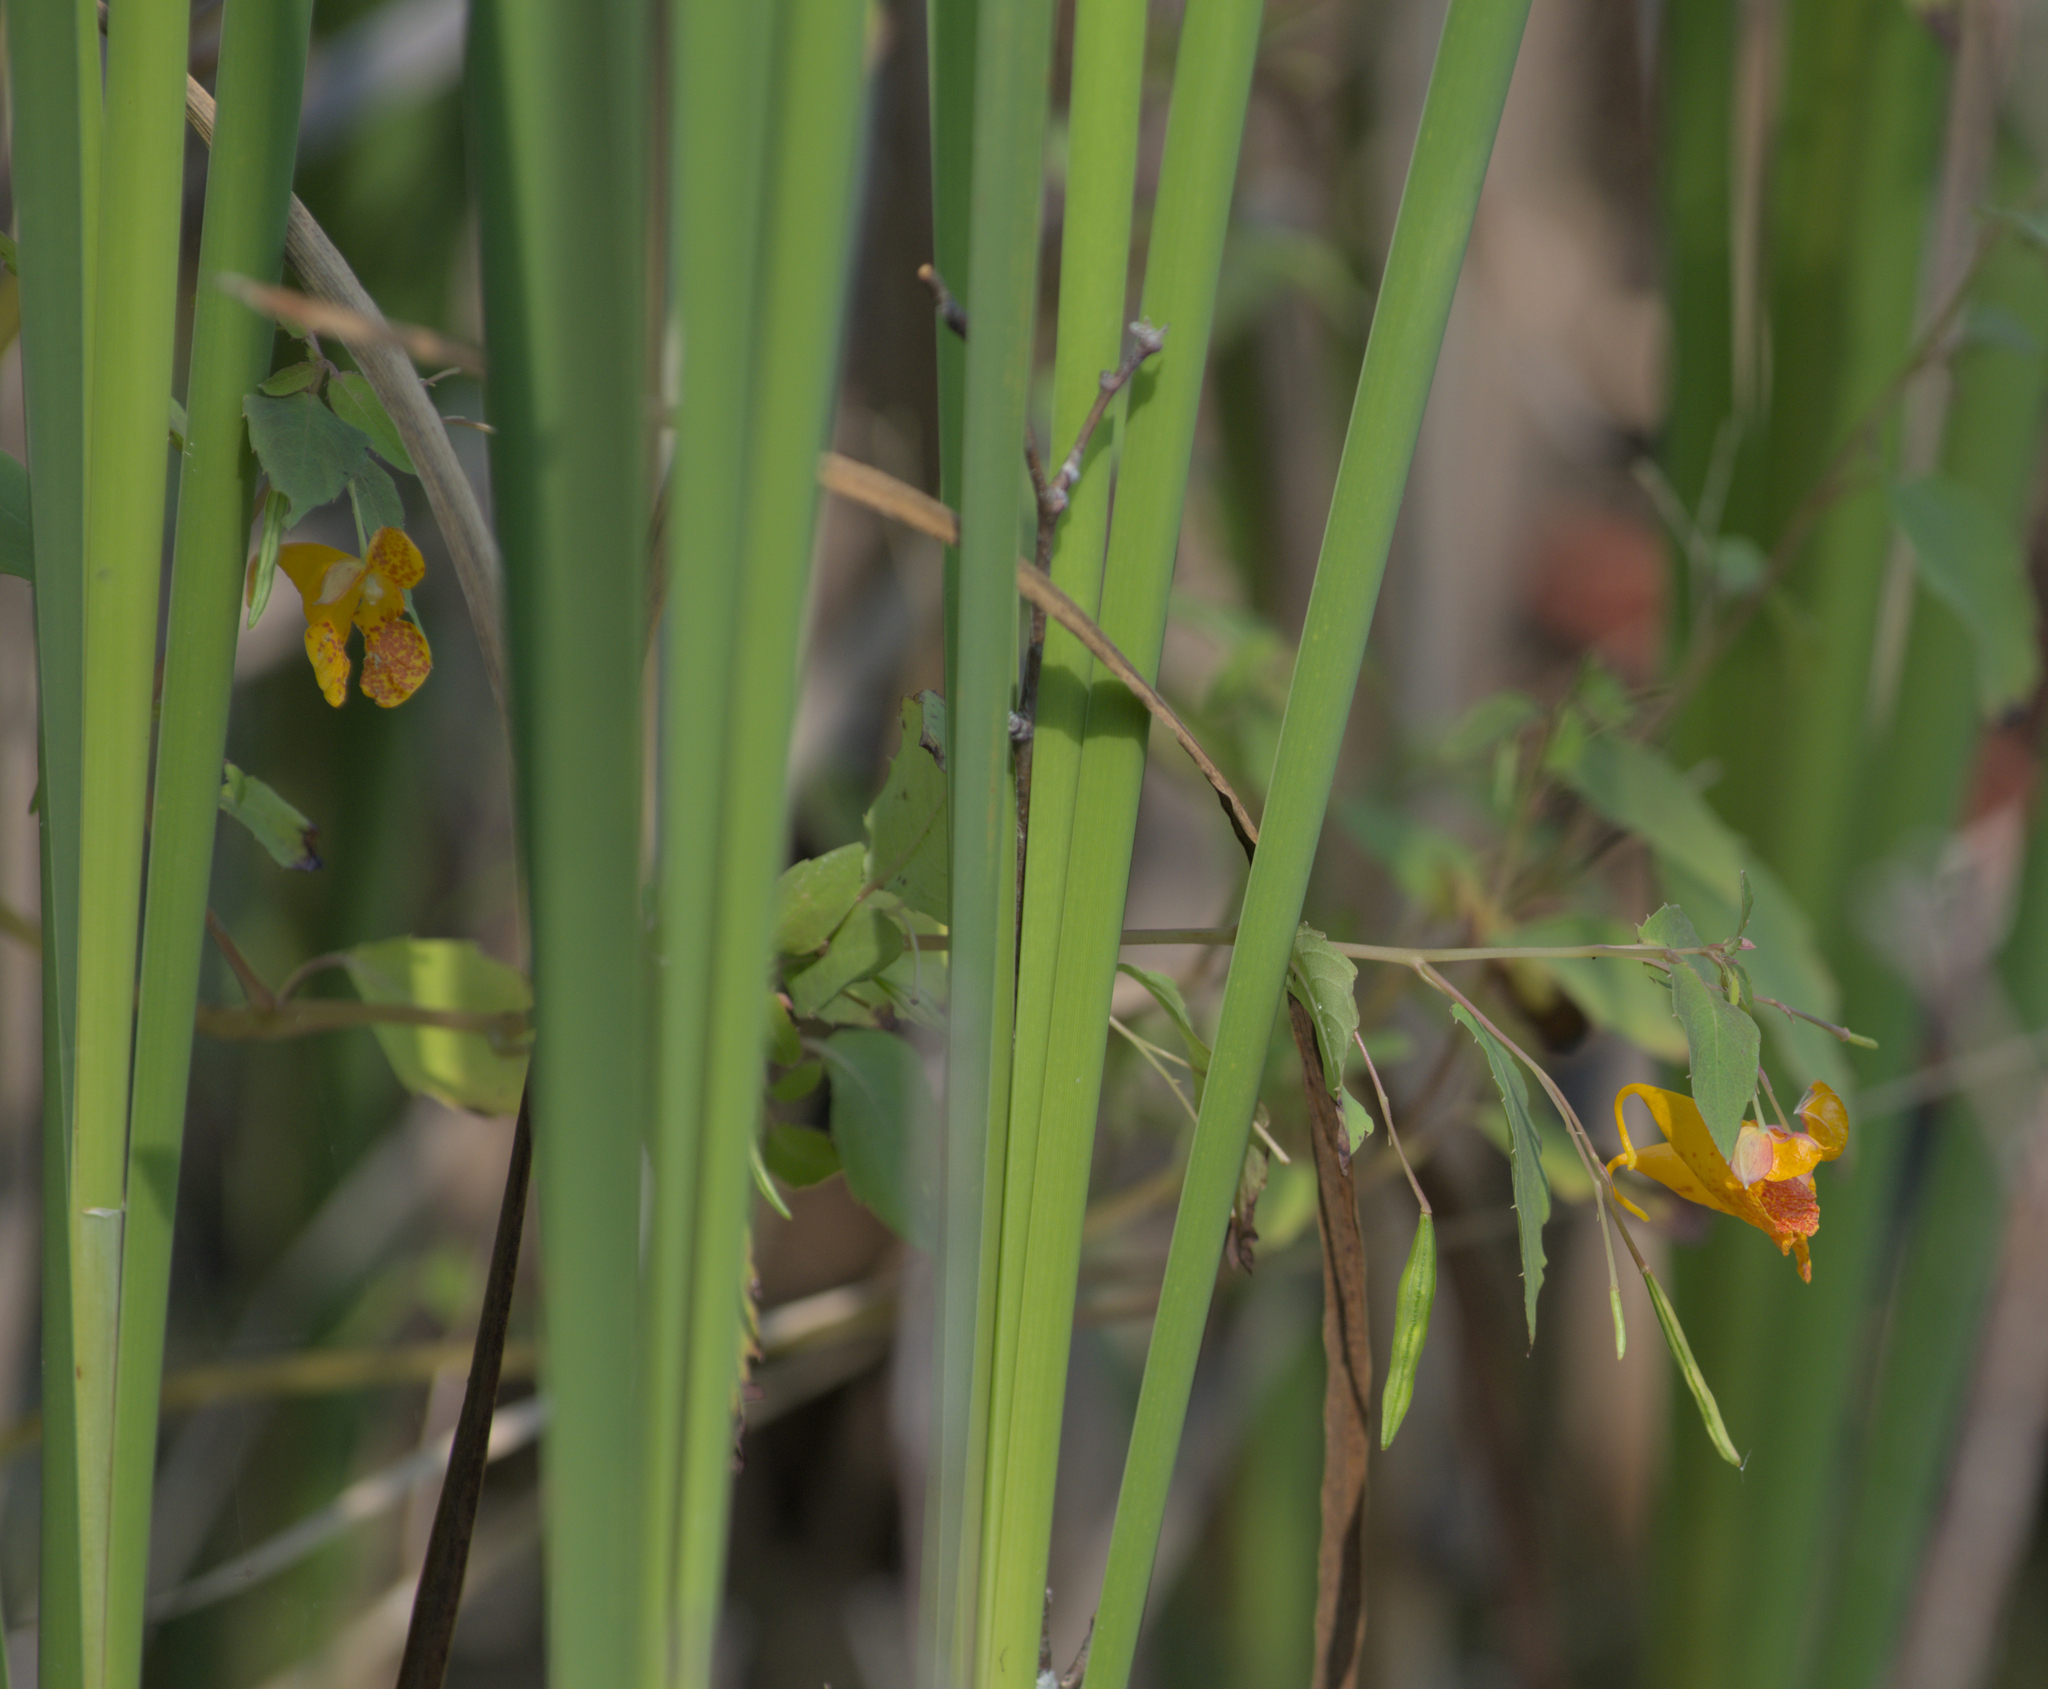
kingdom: Plantae
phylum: Tracheophyta
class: Magnoliopsida
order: Ericales
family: Balsaminaceae
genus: Impatiens
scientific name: Impatiens capensis
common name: Orange balsam
